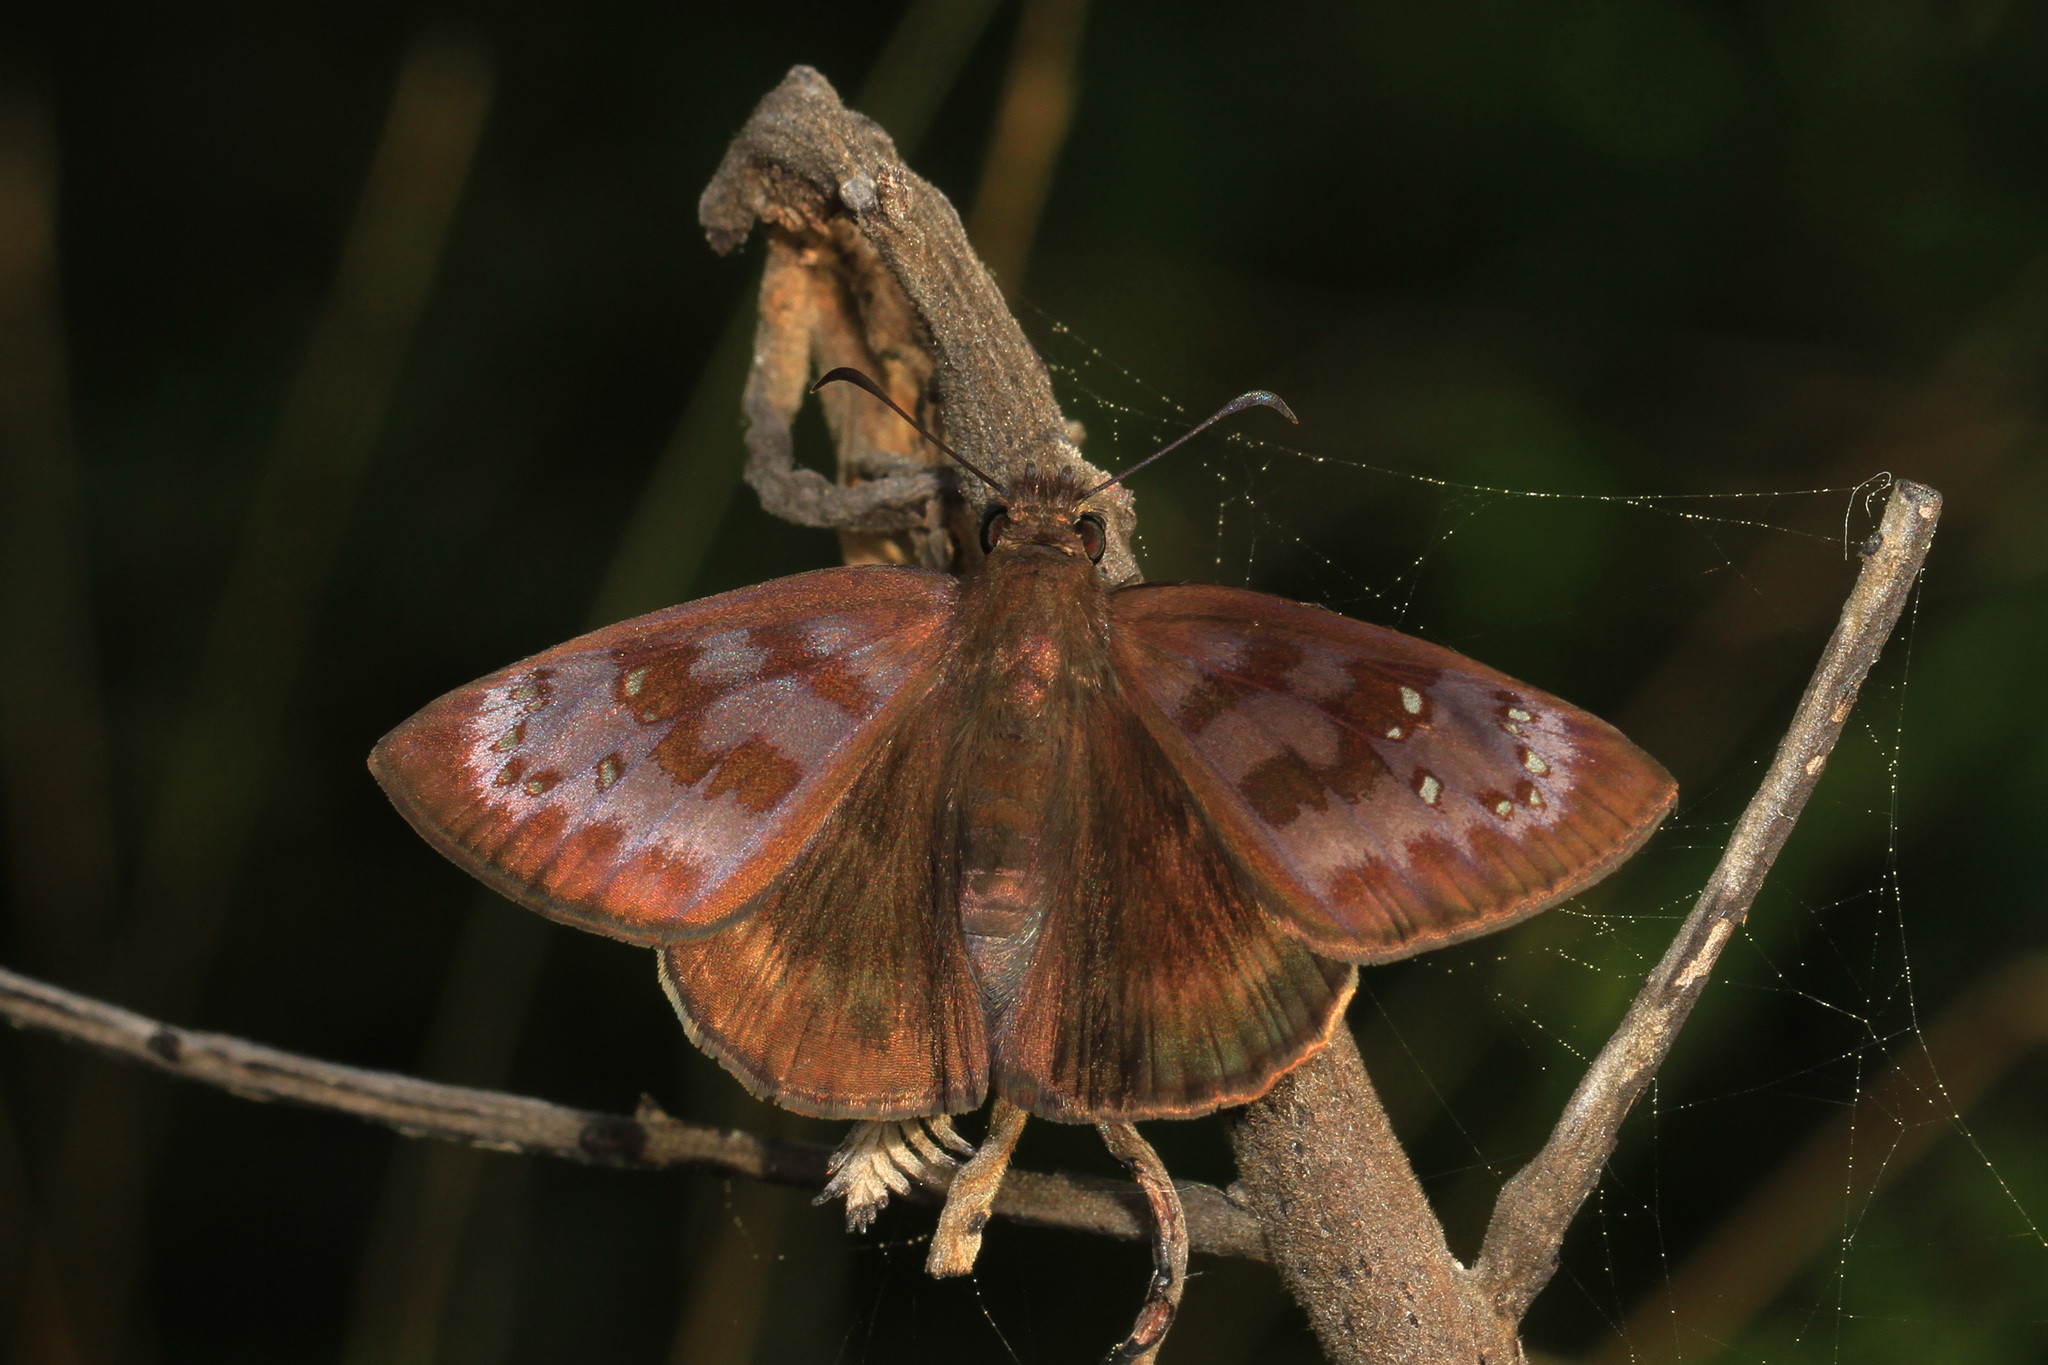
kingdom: Animalia
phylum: Arthropoda
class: Insecta
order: Lepidoptera
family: Hesperiidae
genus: Ephyriades
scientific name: Ephyriades brunnea
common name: Florida duskywing
